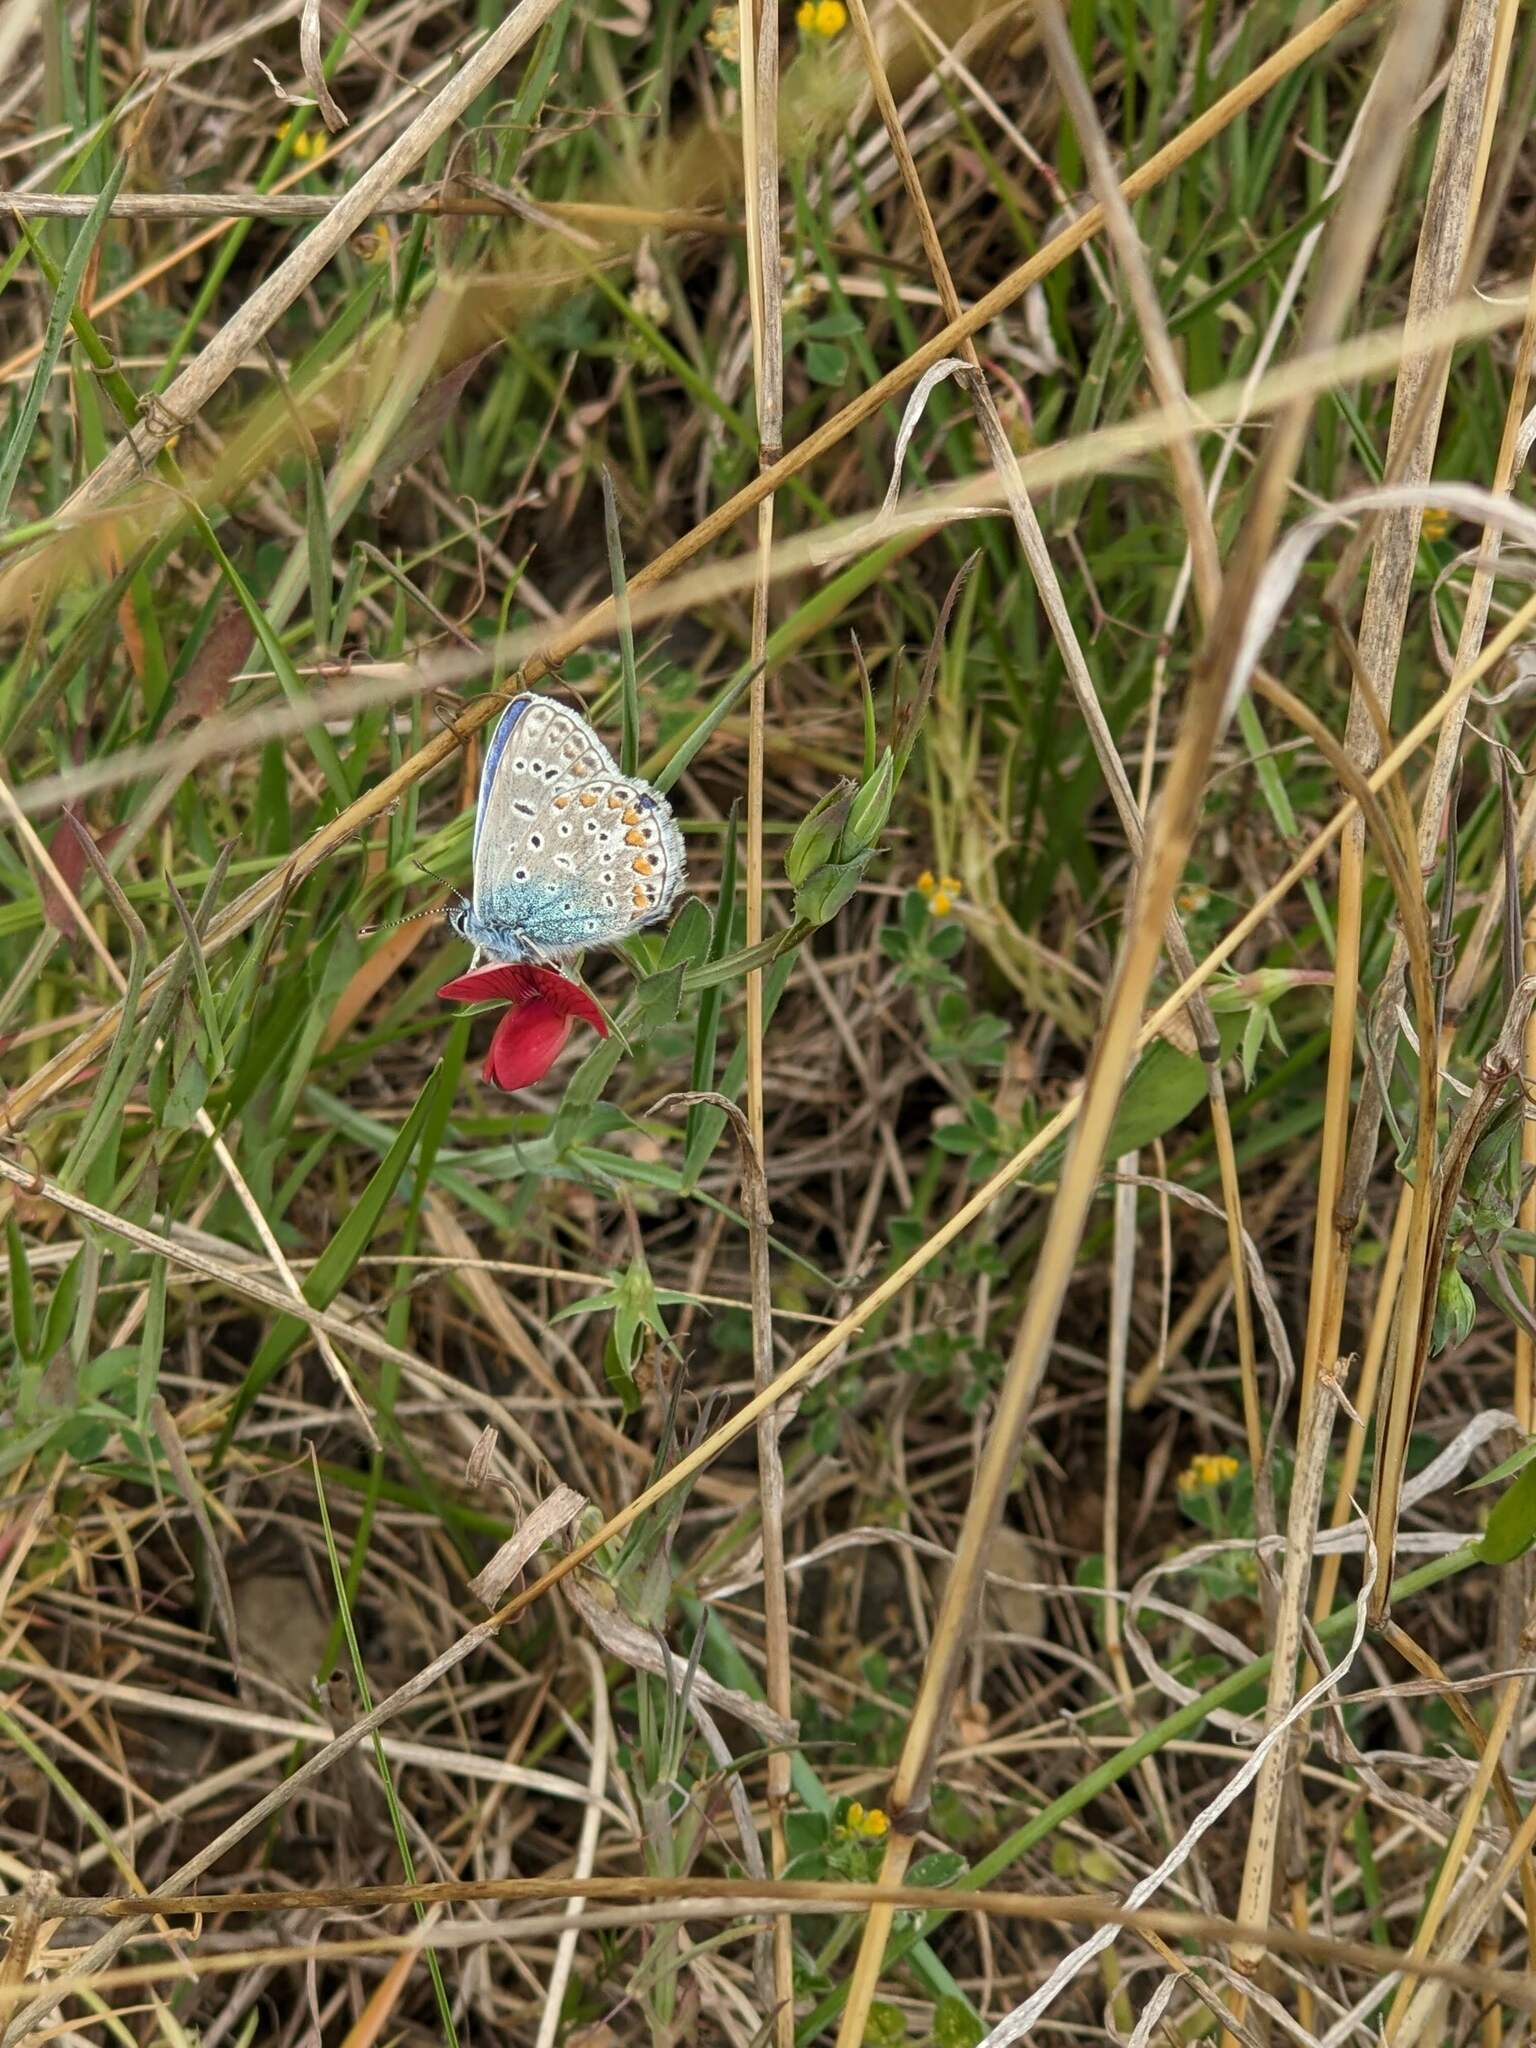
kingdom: Animalia
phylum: Arthropoda
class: Insecta
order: Lepidoptera
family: Lycaenidae
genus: Polyommatus
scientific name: Polyommatus icarus
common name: Common blue
